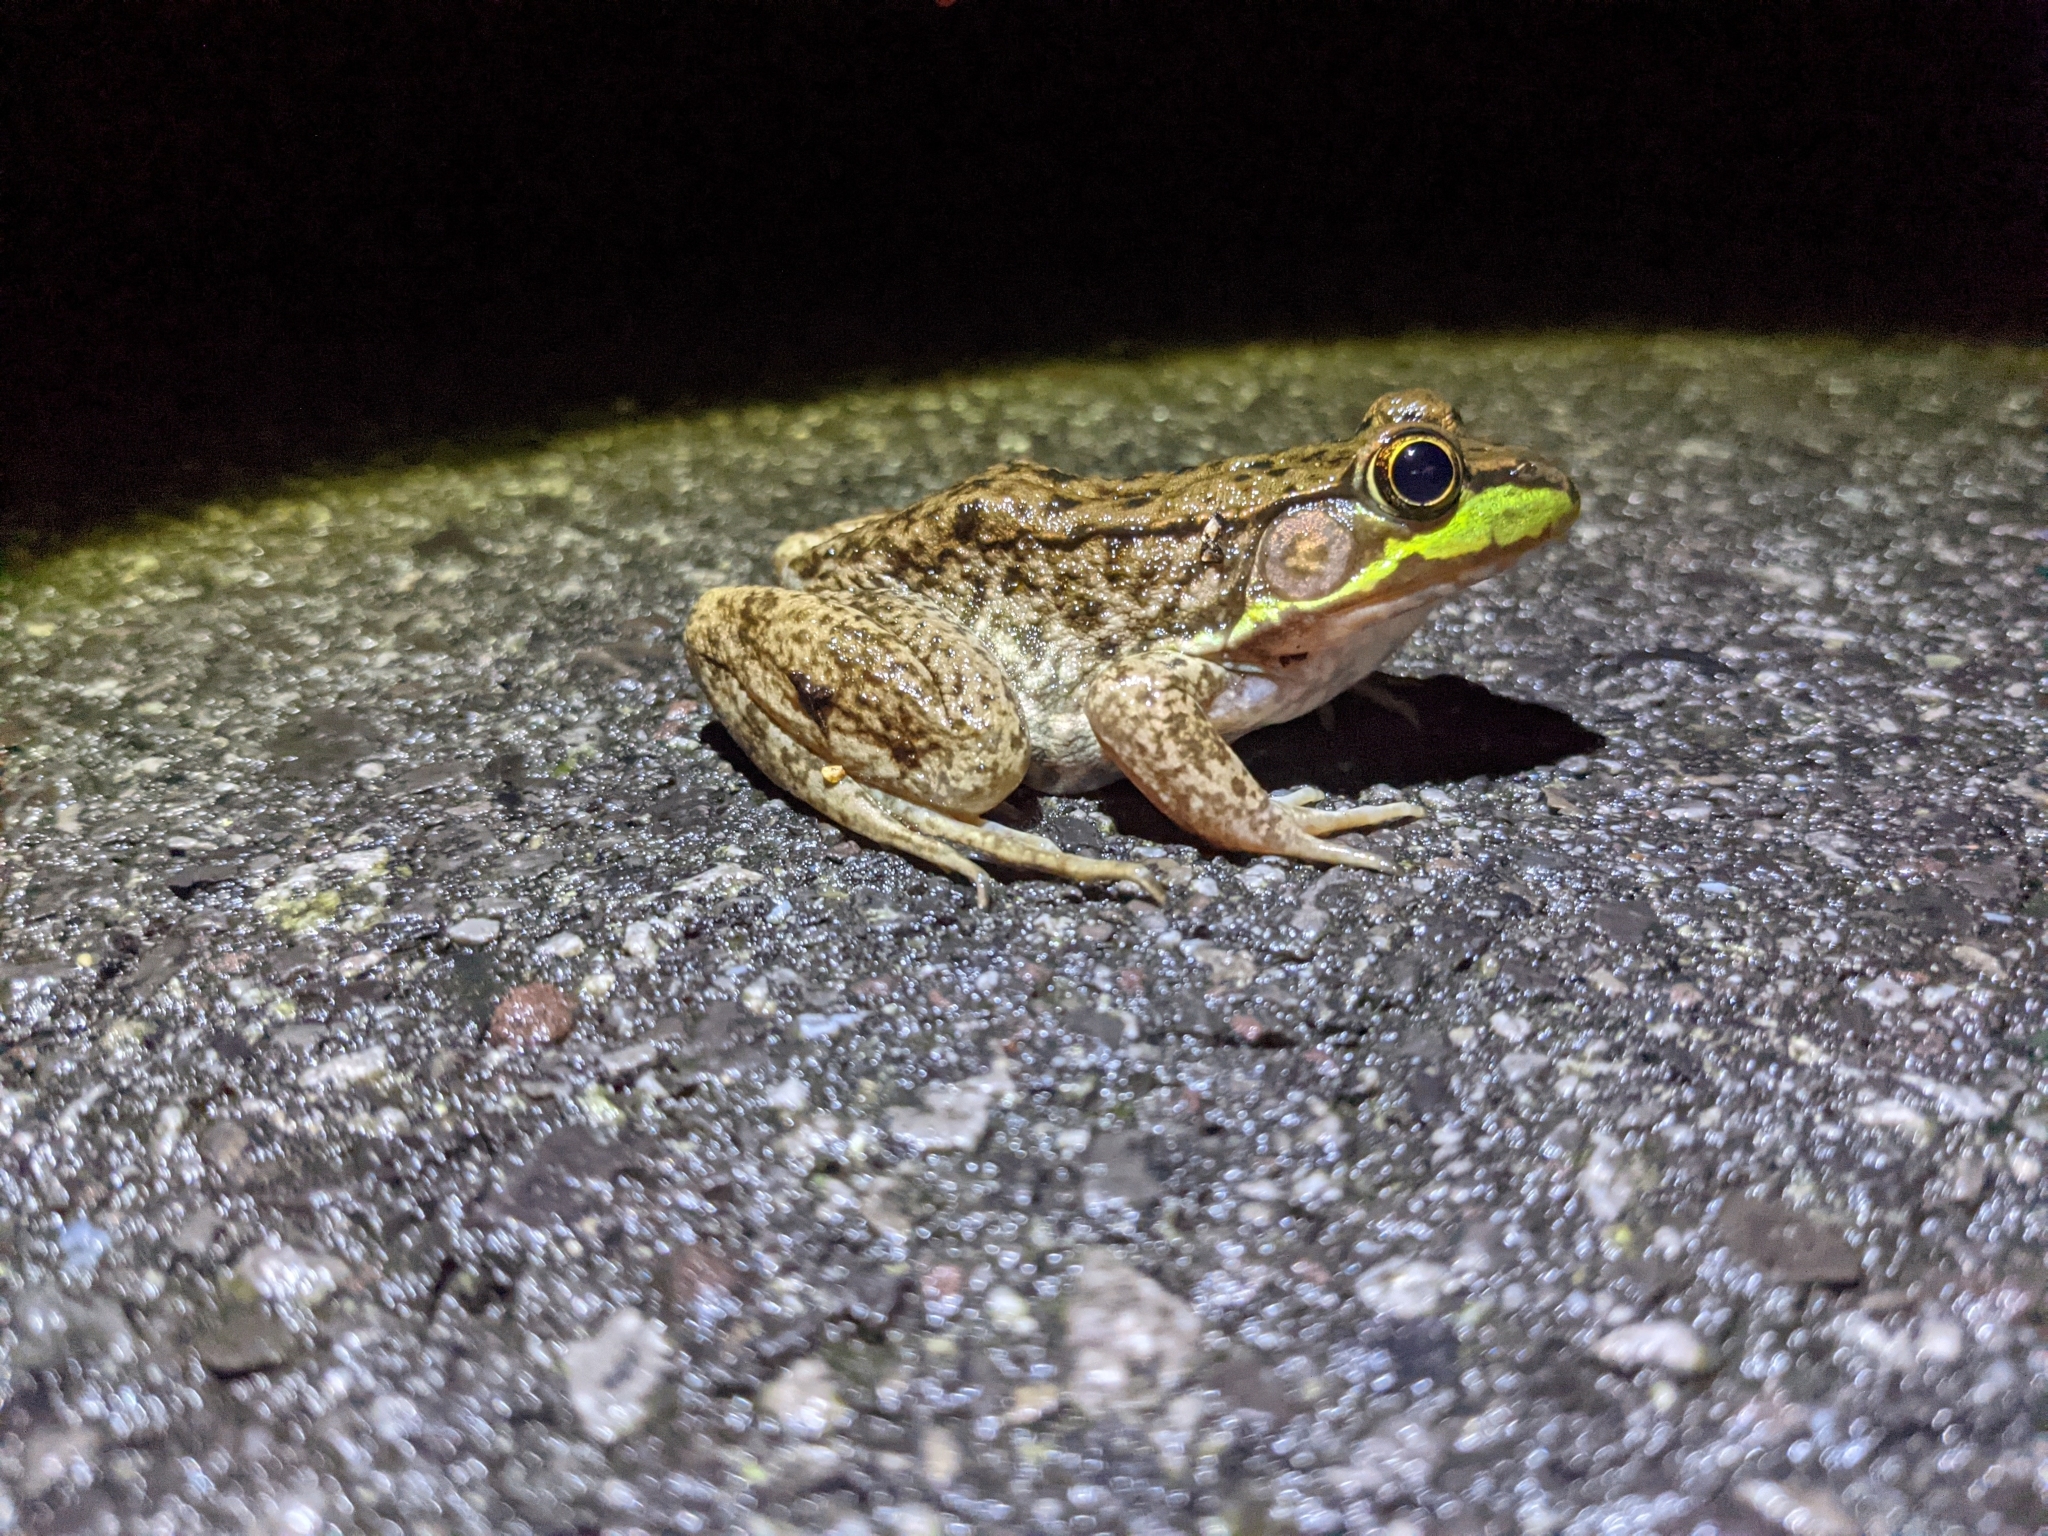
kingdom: Animalia
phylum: Chordata
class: Amphibia
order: Anura
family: Ranidae
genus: Lithobates
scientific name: Lithobates clamitans
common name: Green frog
